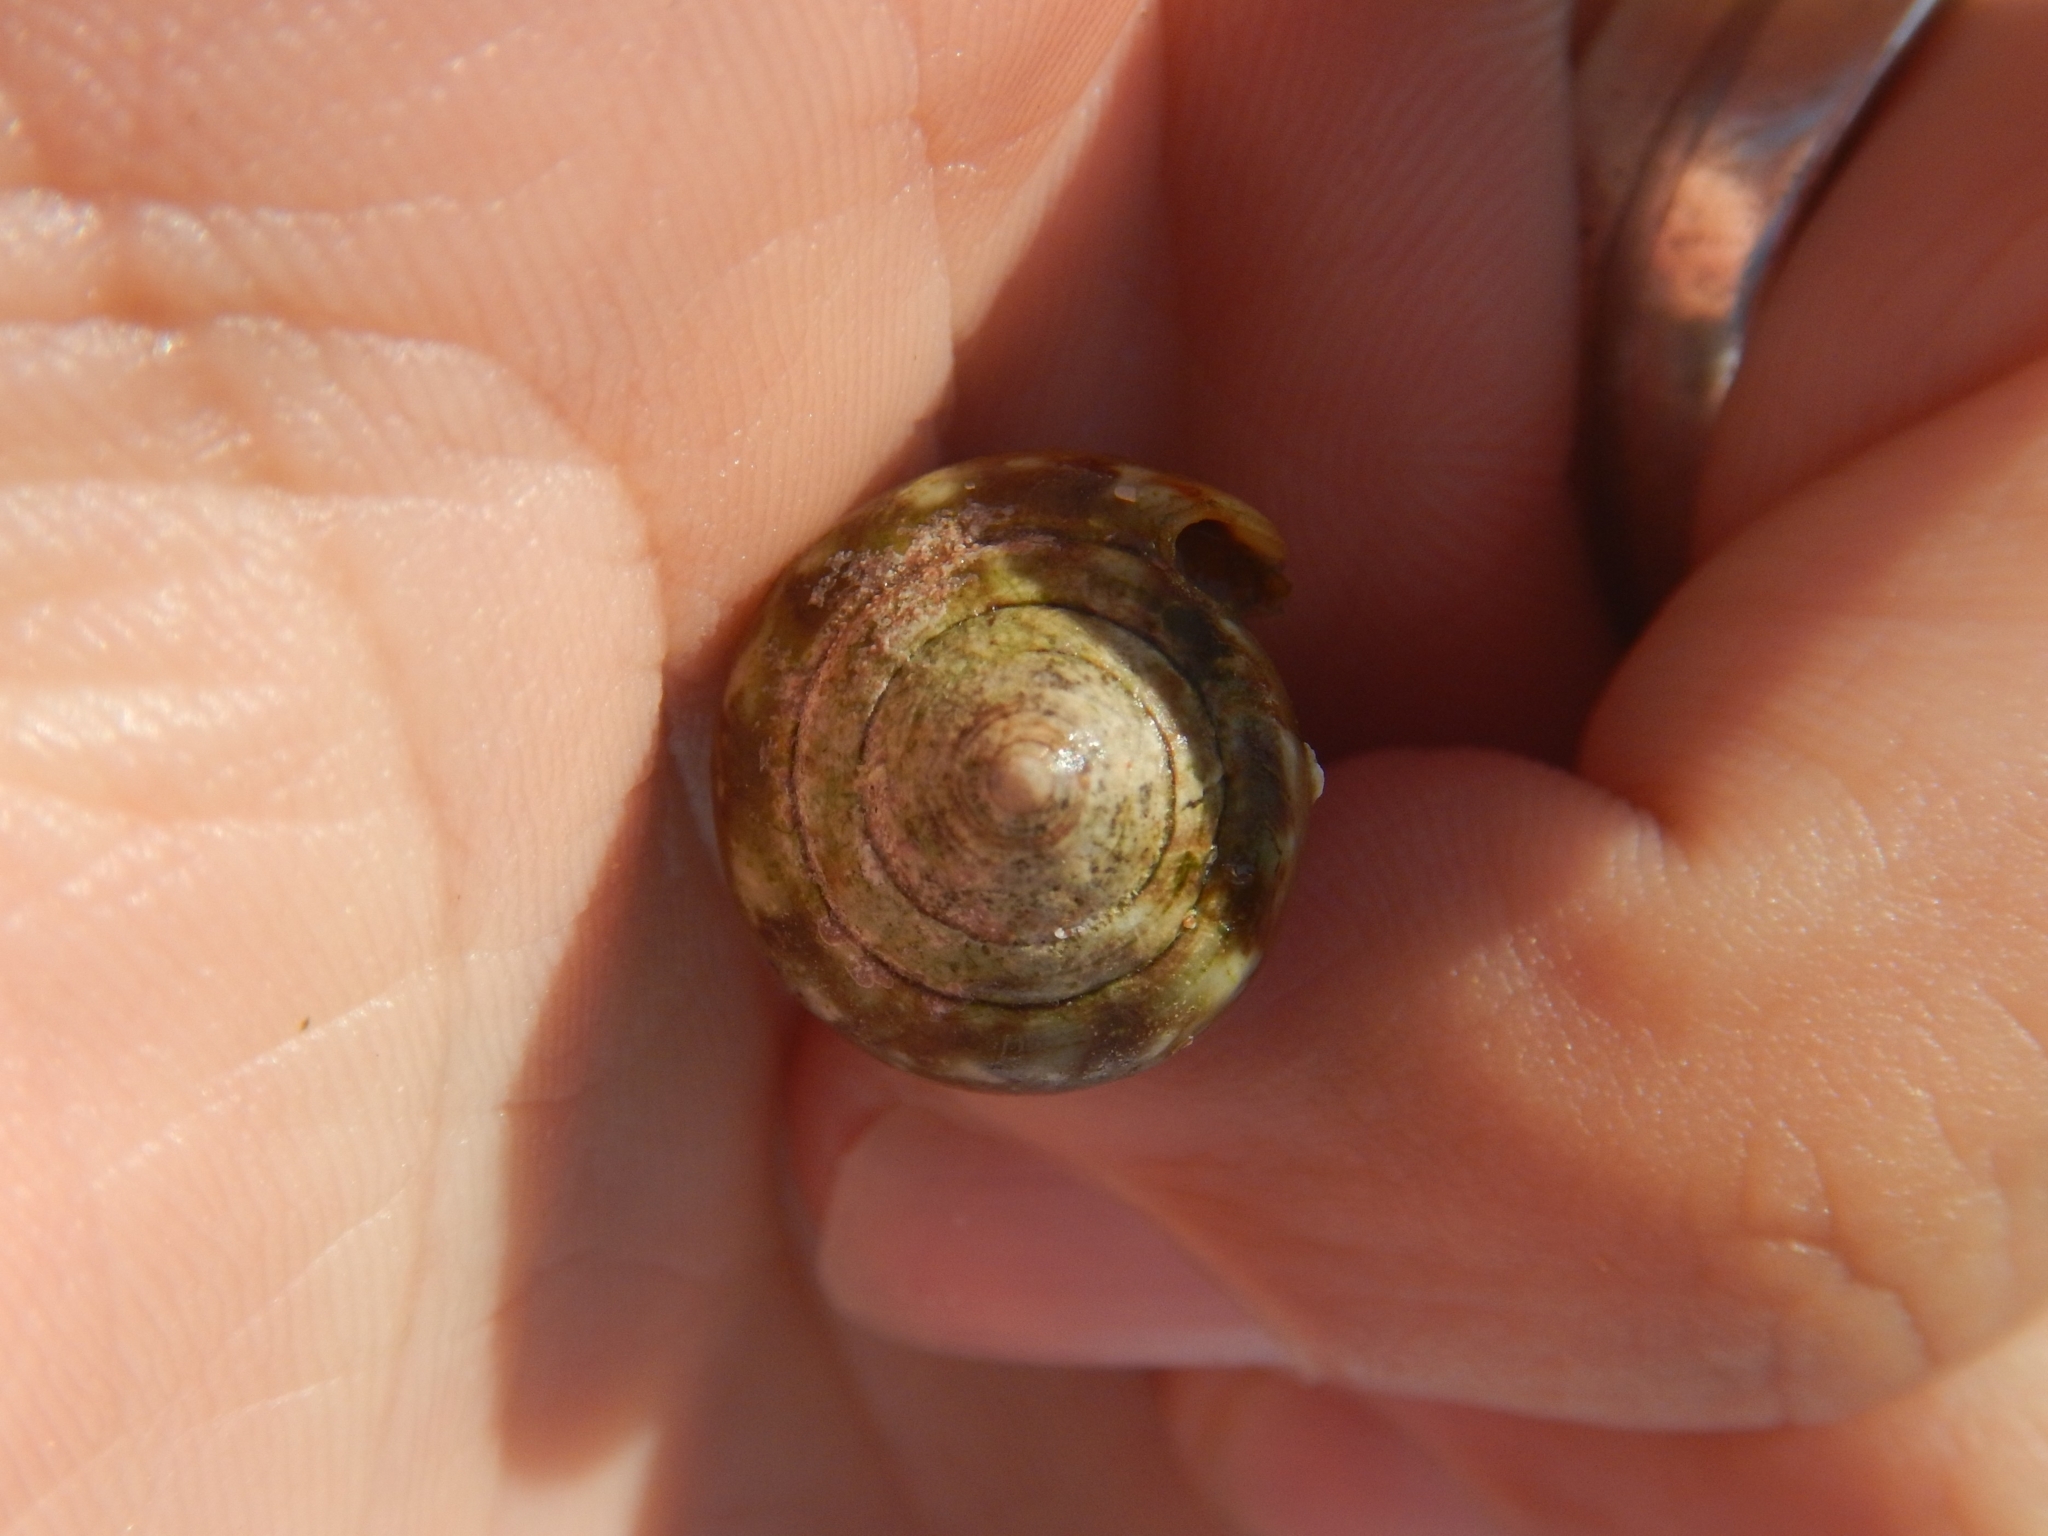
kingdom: Animalia
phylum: Mollusca
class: Gastropoda
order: Neogastropoda
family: Conidae
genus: Conus
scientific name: Conus ventricosus
